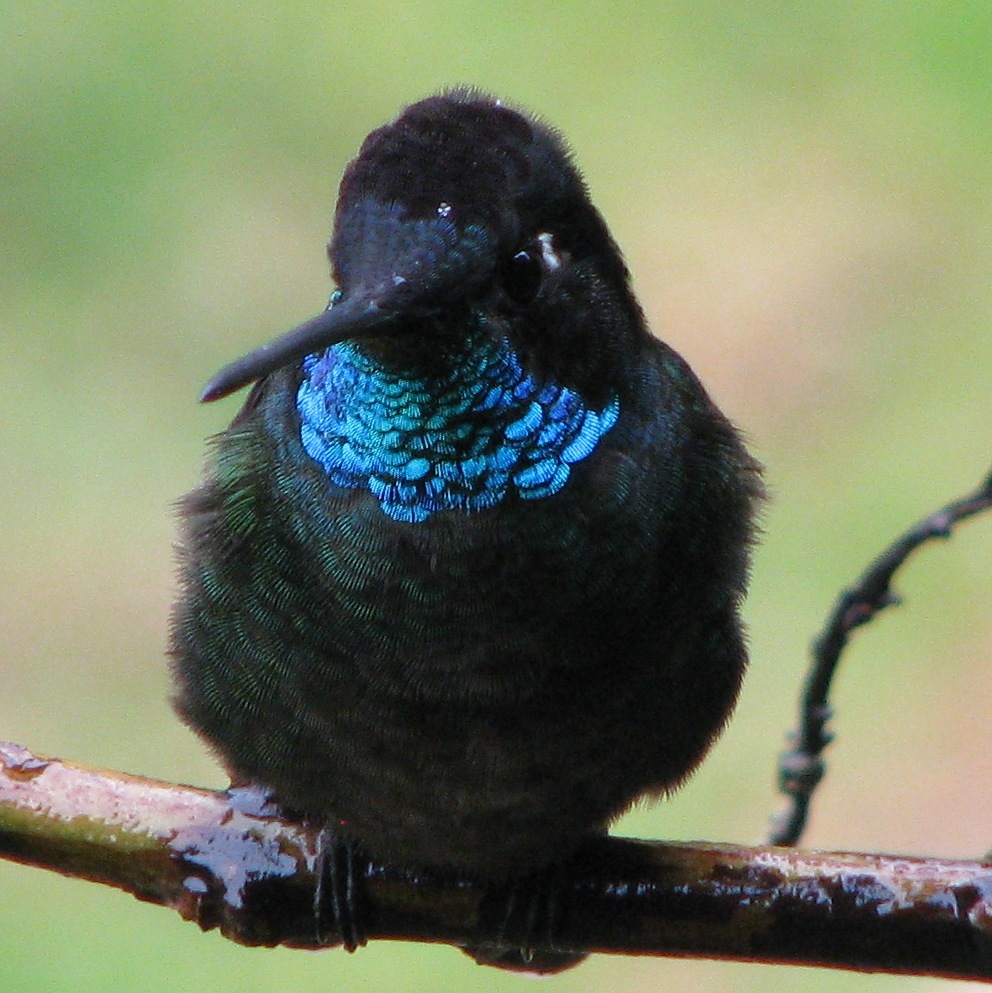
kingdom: Animalia
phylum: Chordata
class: Aves
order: Apodiformes
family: Trochilidae
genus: Eugenes
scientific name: Eugenes spectabilis
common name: Talamanca hummingbird
